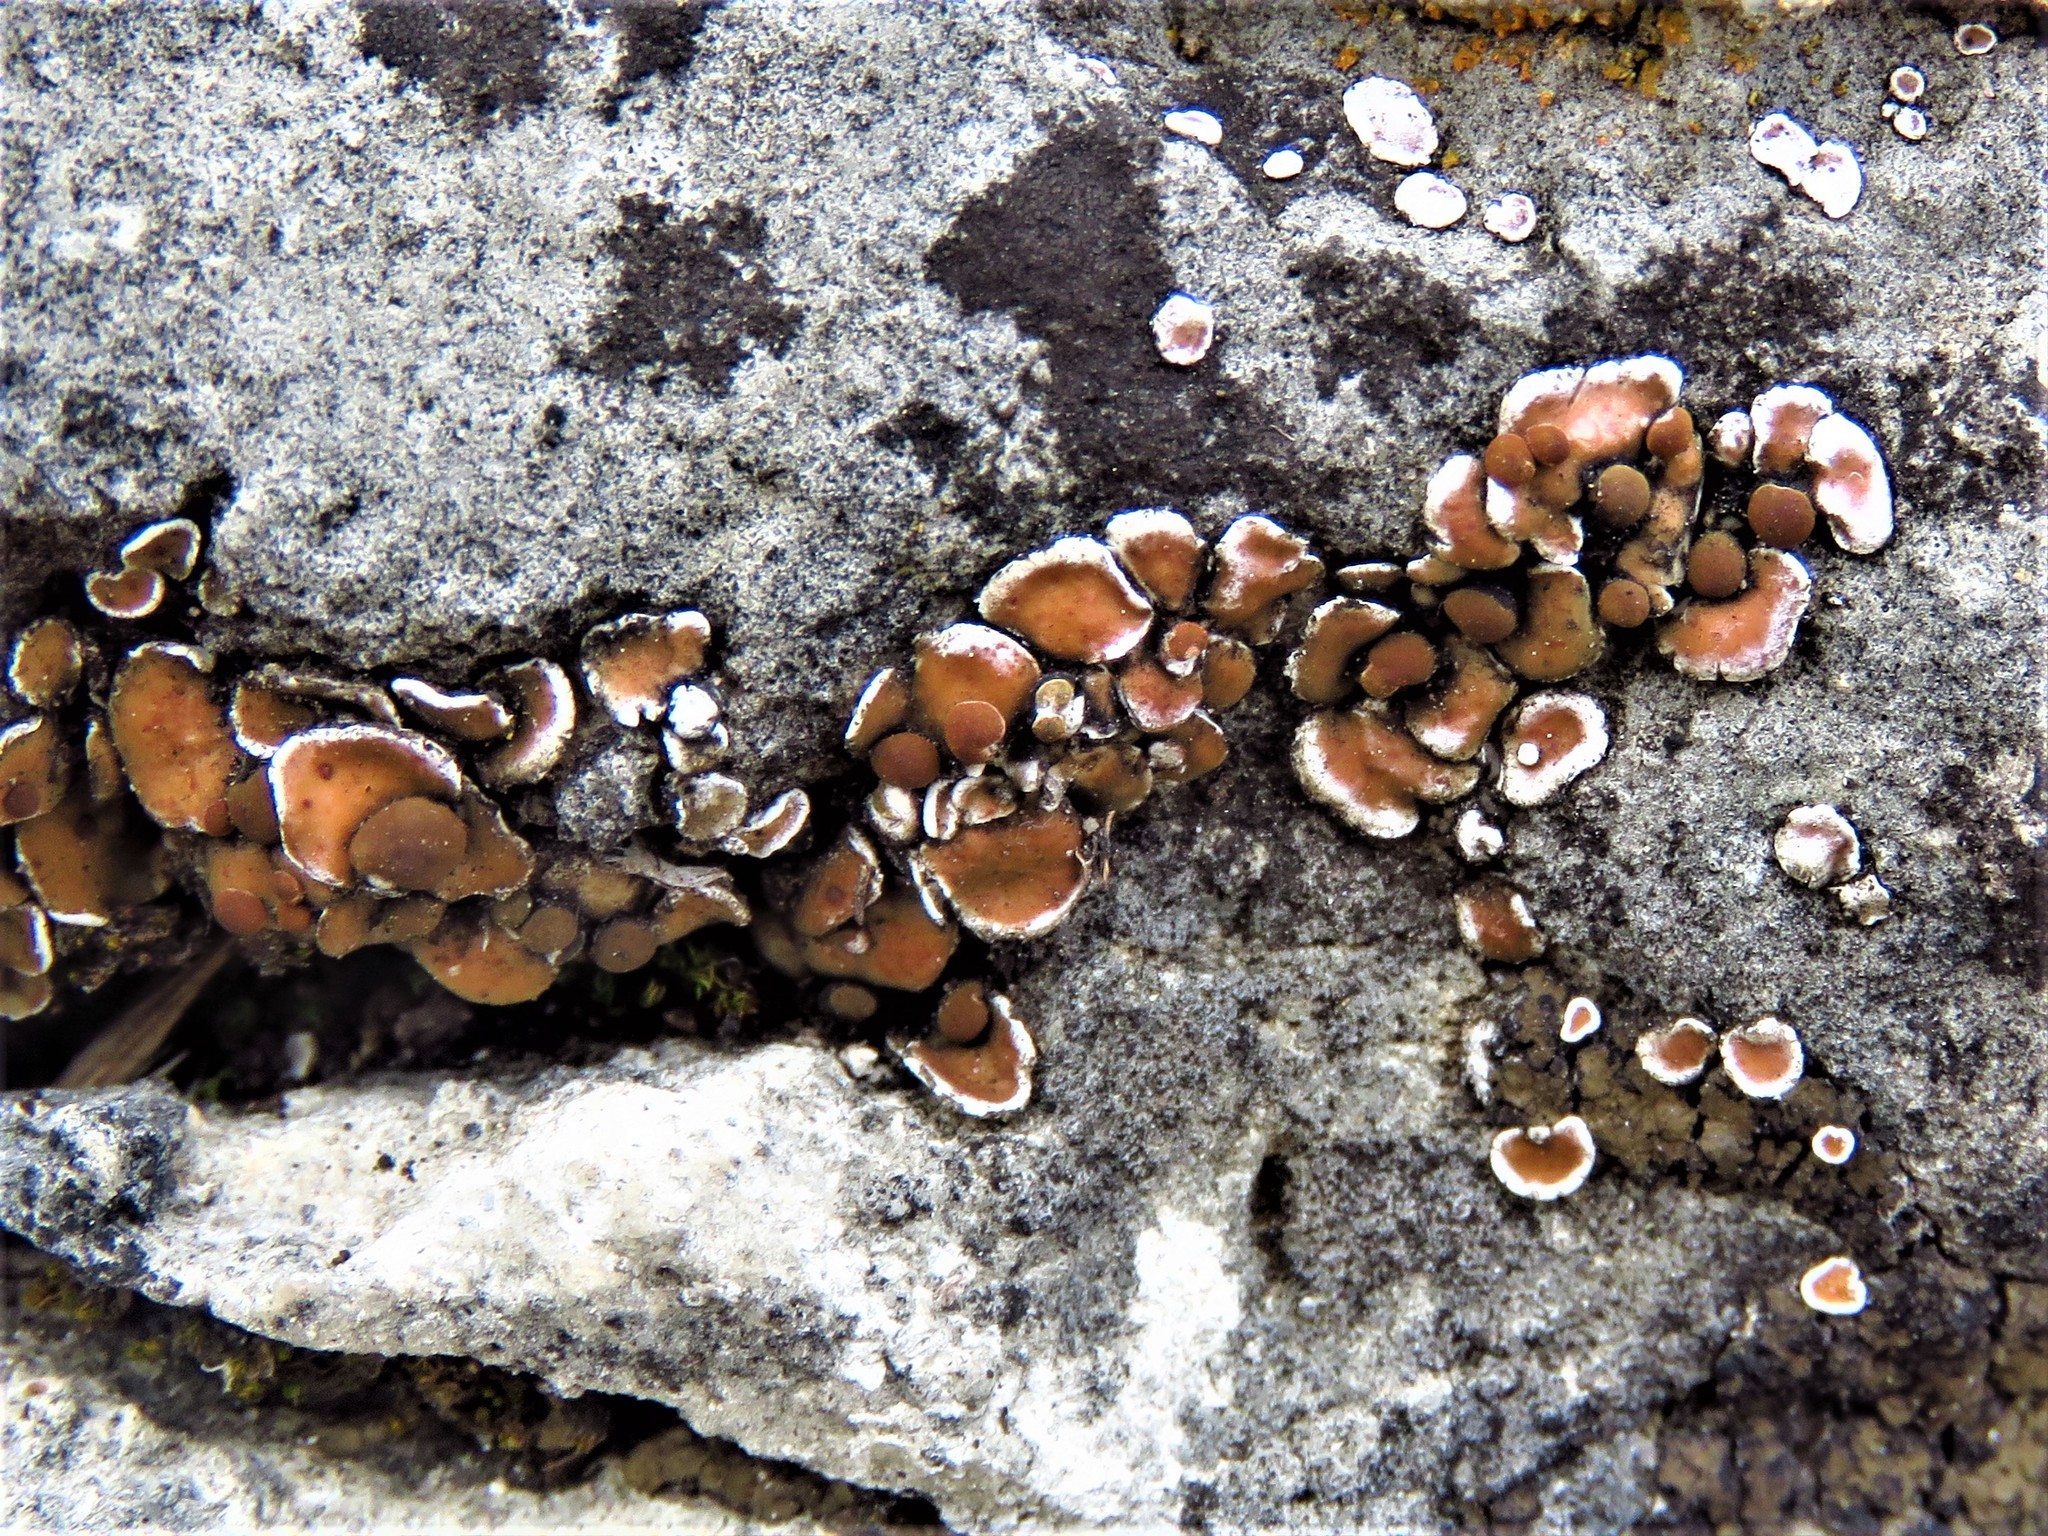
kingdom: Fungi
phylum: Ascomycota
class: Lecanoromycetes
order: Lecanorales
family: Psoraceae
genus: Psora
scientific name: Psora pseudorussellii
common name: Bordered scale lichen
